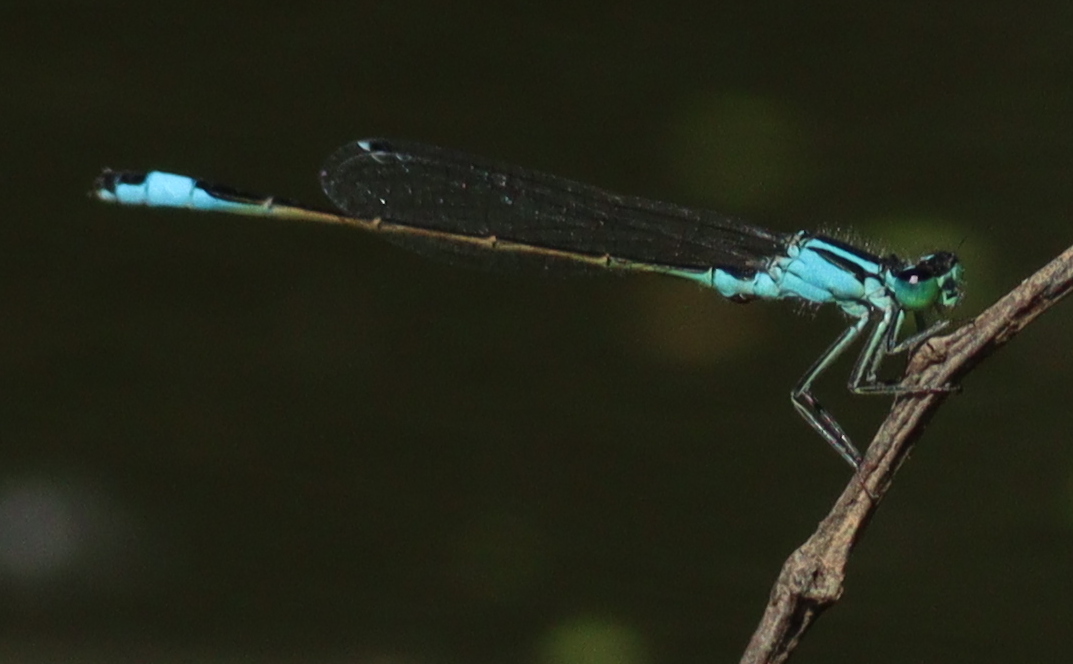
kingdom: Animalia
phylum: Arthropoda
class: Insecta
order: Odonata
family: Coenagrionidae
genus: Ischnura
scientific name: Ischnura elegans
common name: Blue-tailed damselfly
